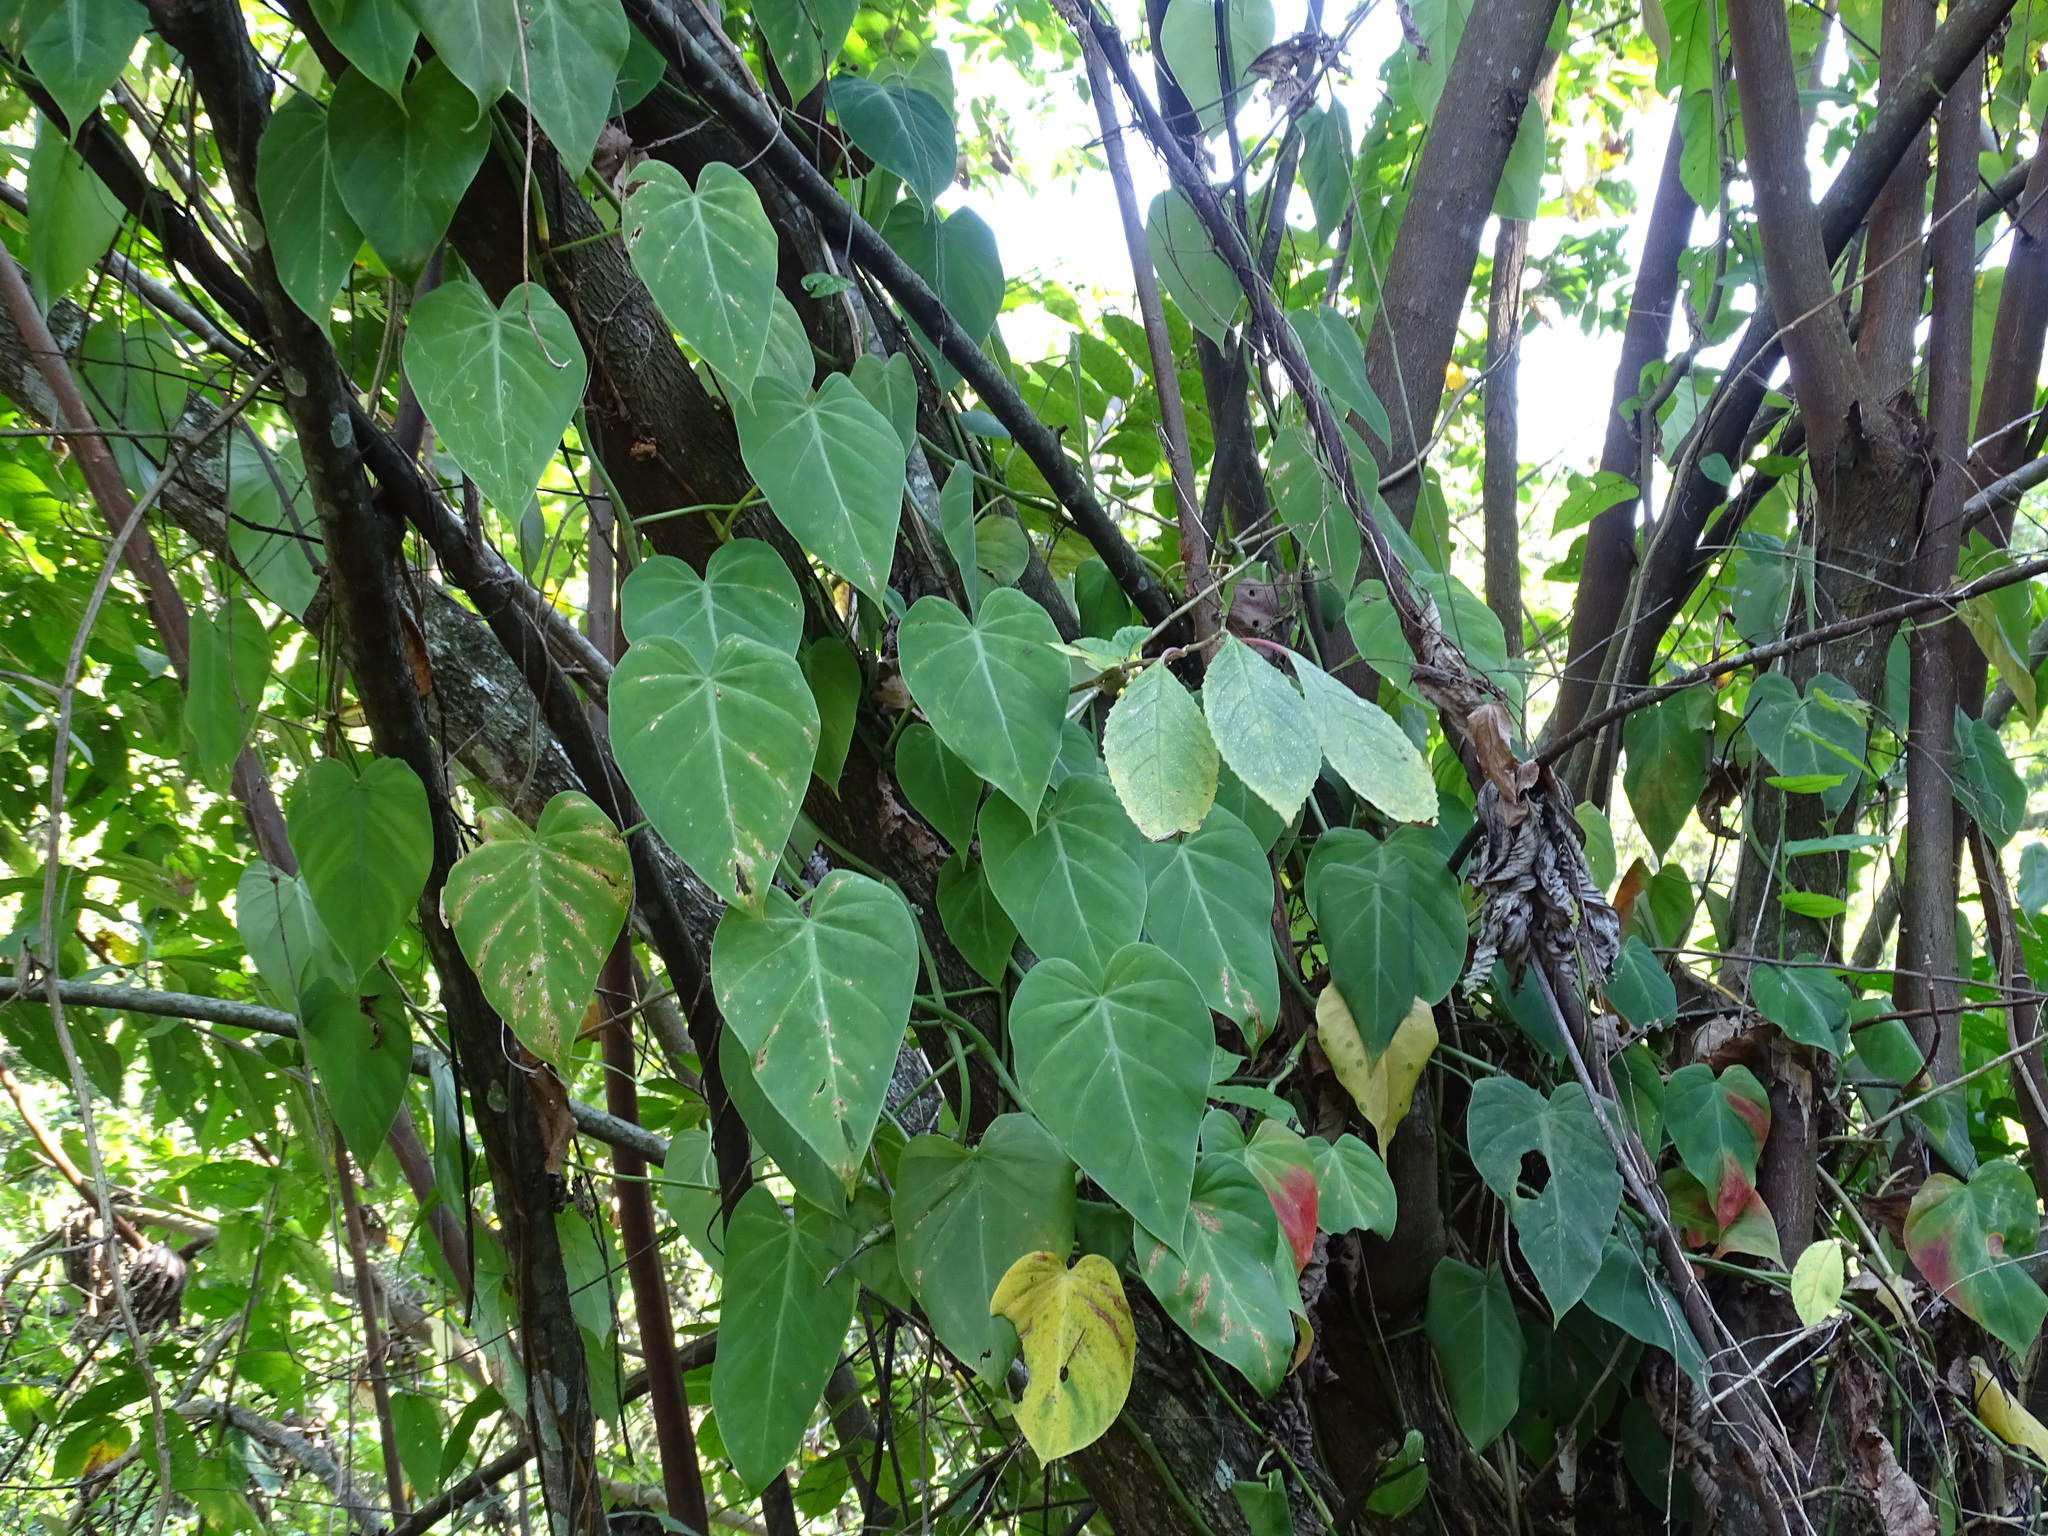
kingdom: Plantae
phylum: Tracheophyta
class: Liliopsida
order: Alismatales
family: Araceae
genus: Philodendron
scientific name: Philodendron hederaceum
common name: Vilevine
